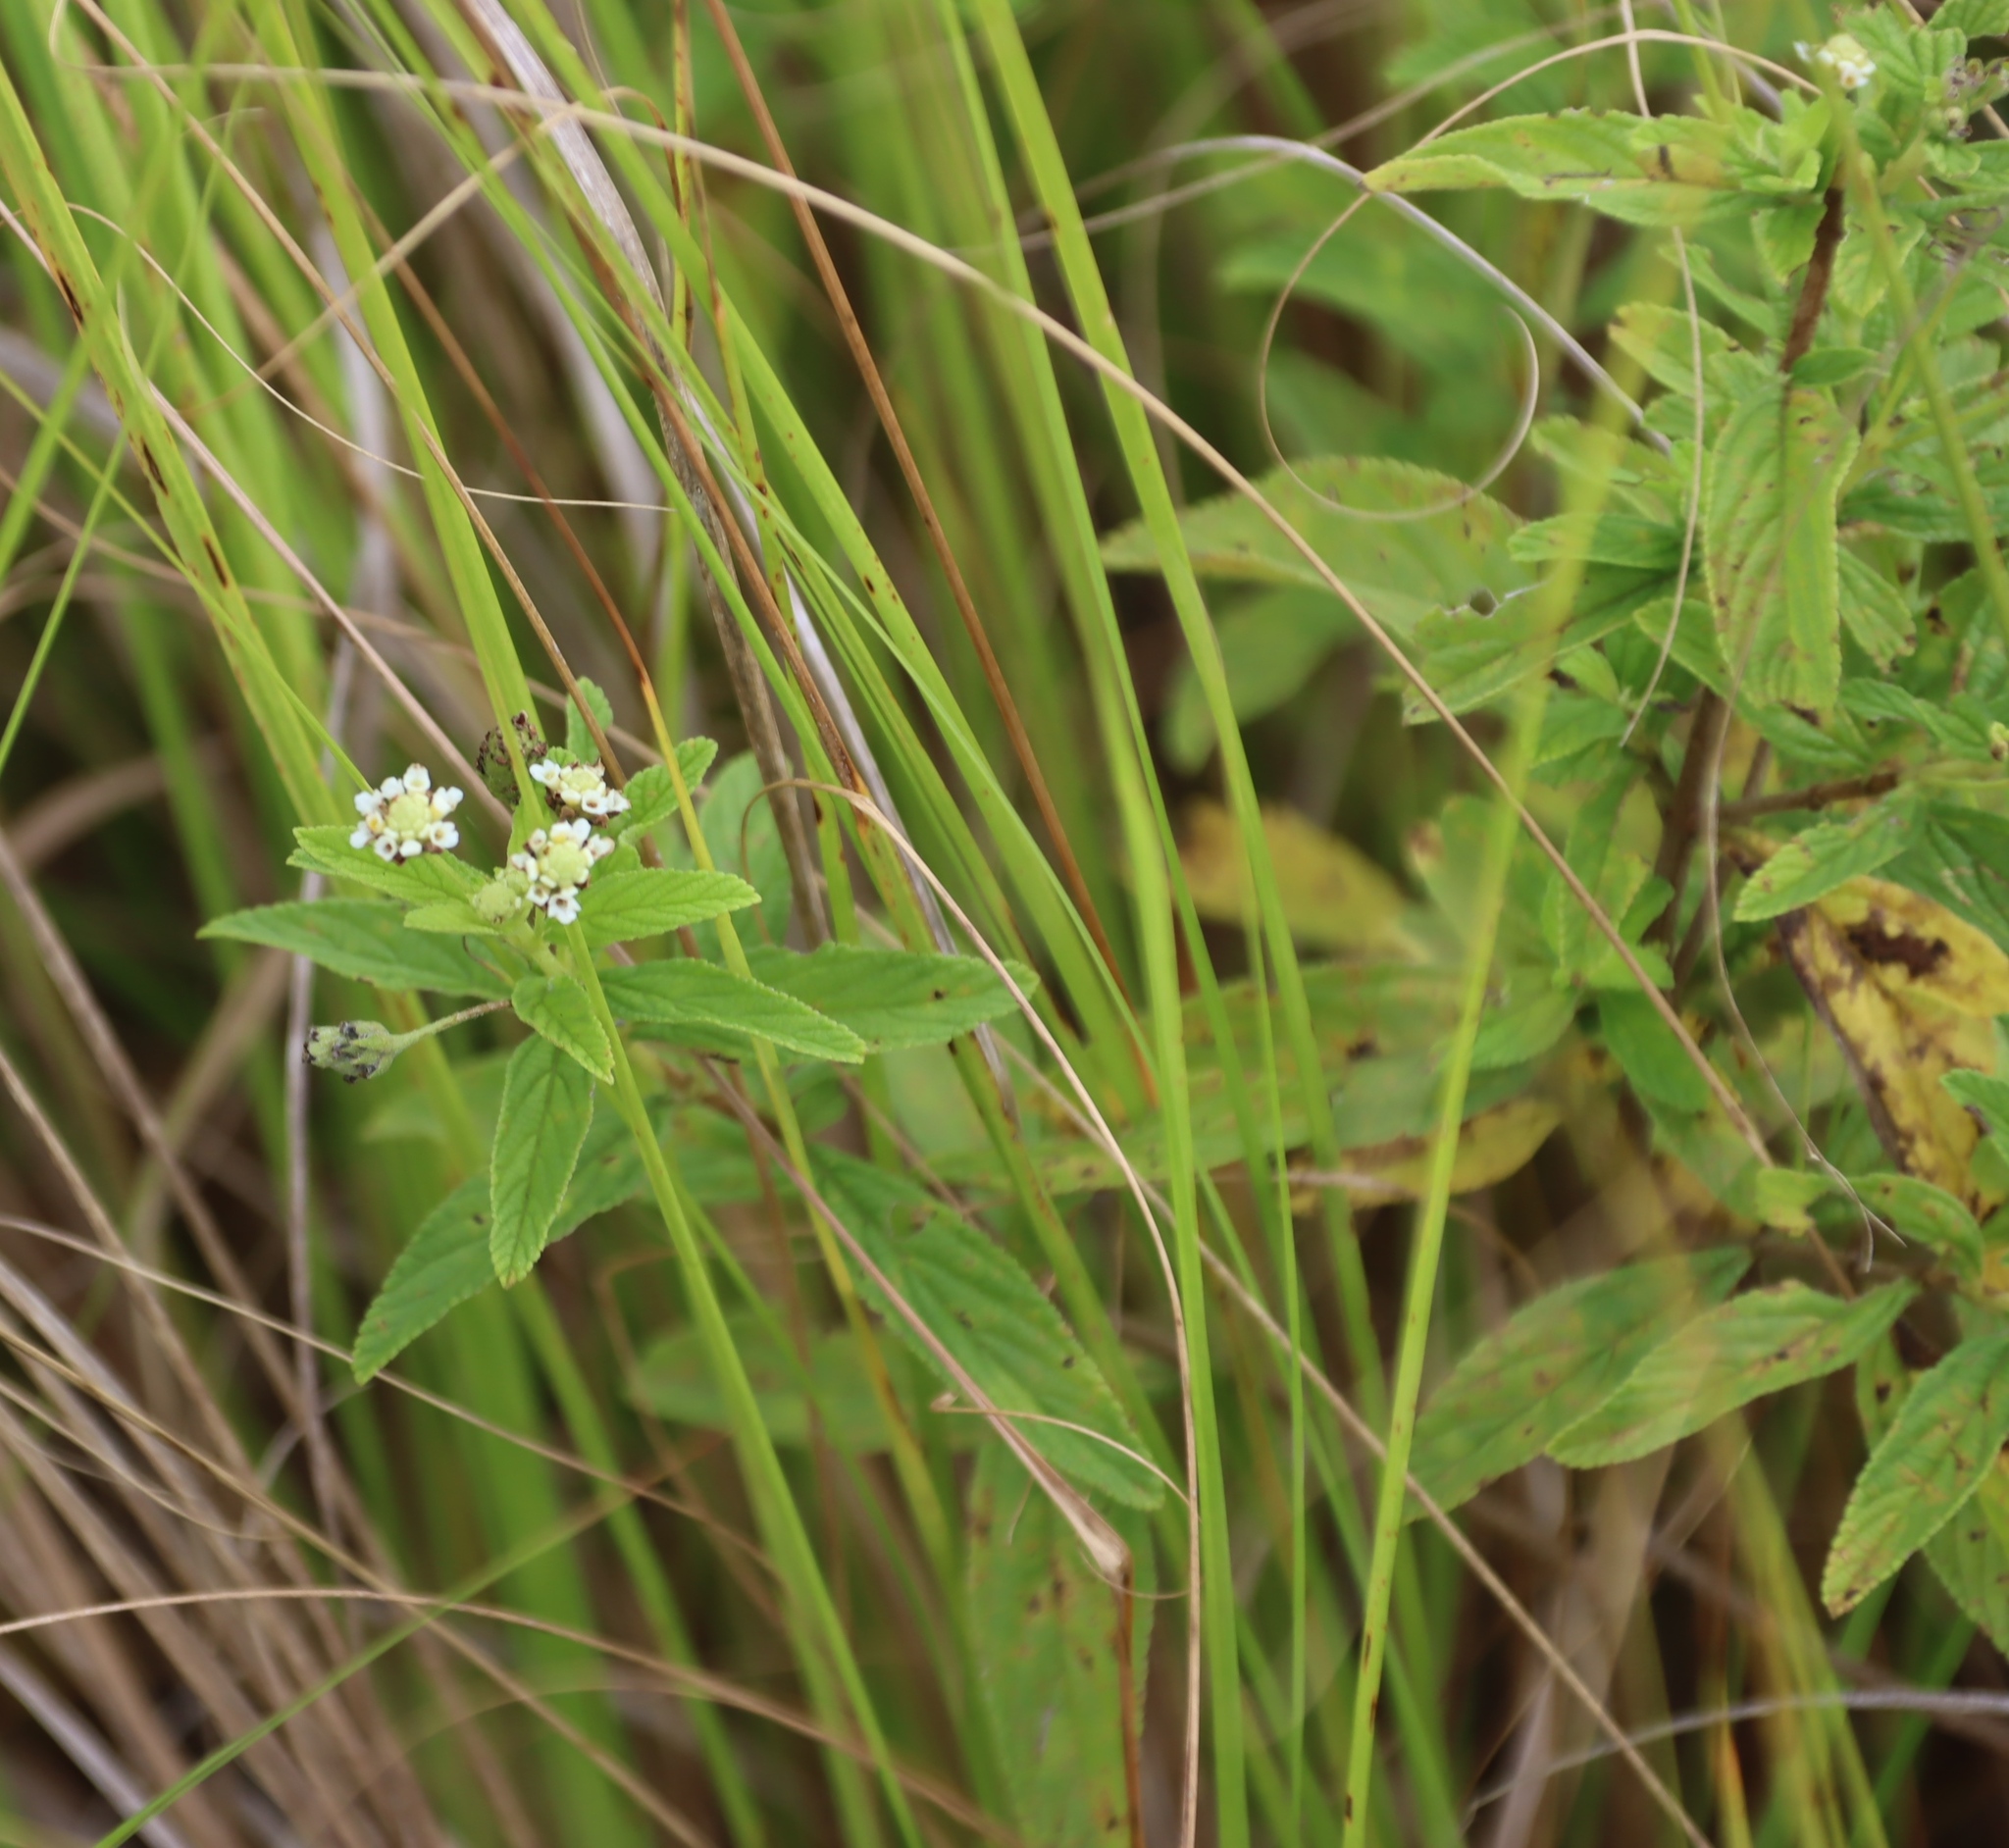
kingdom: Plantae
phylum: Tracheophyta
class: Magnoliopsida
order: Lamiales
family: Verbenaceae
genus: Lippia
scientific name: Lippia javanica
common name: Lemonbush
